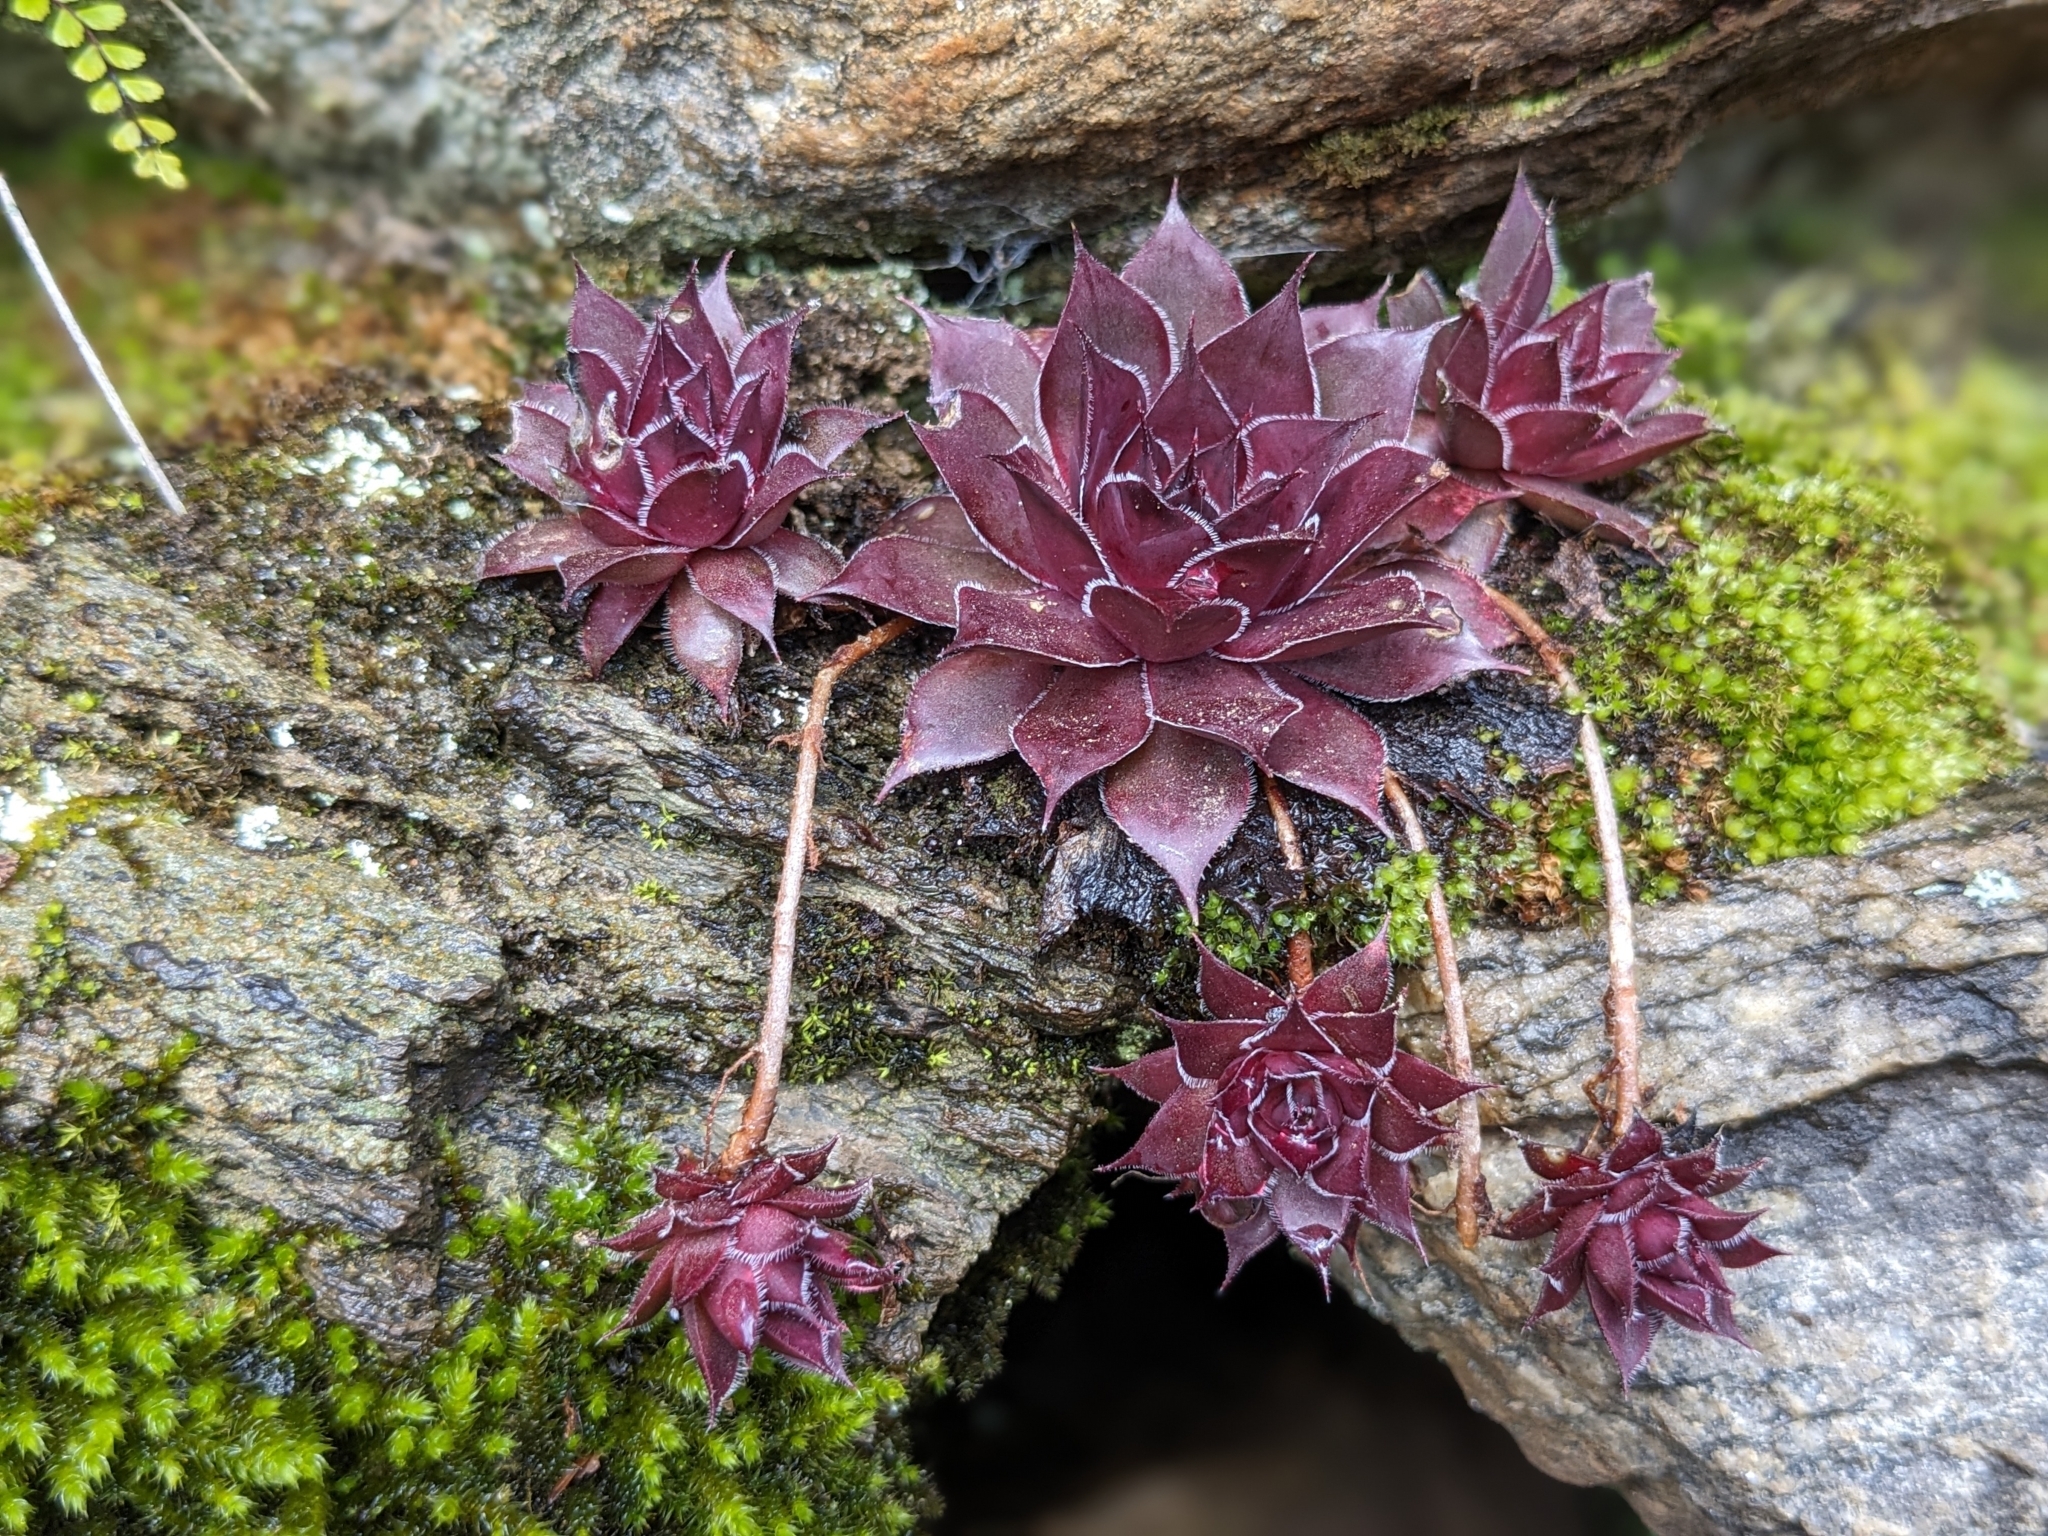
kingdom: Plantae
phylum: Tracheophyta
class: Magnoliopsida
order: Saxifragales
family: Crassulaceae
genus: Sempervivum
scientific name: Sempervivum tectorum
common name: House-leek
